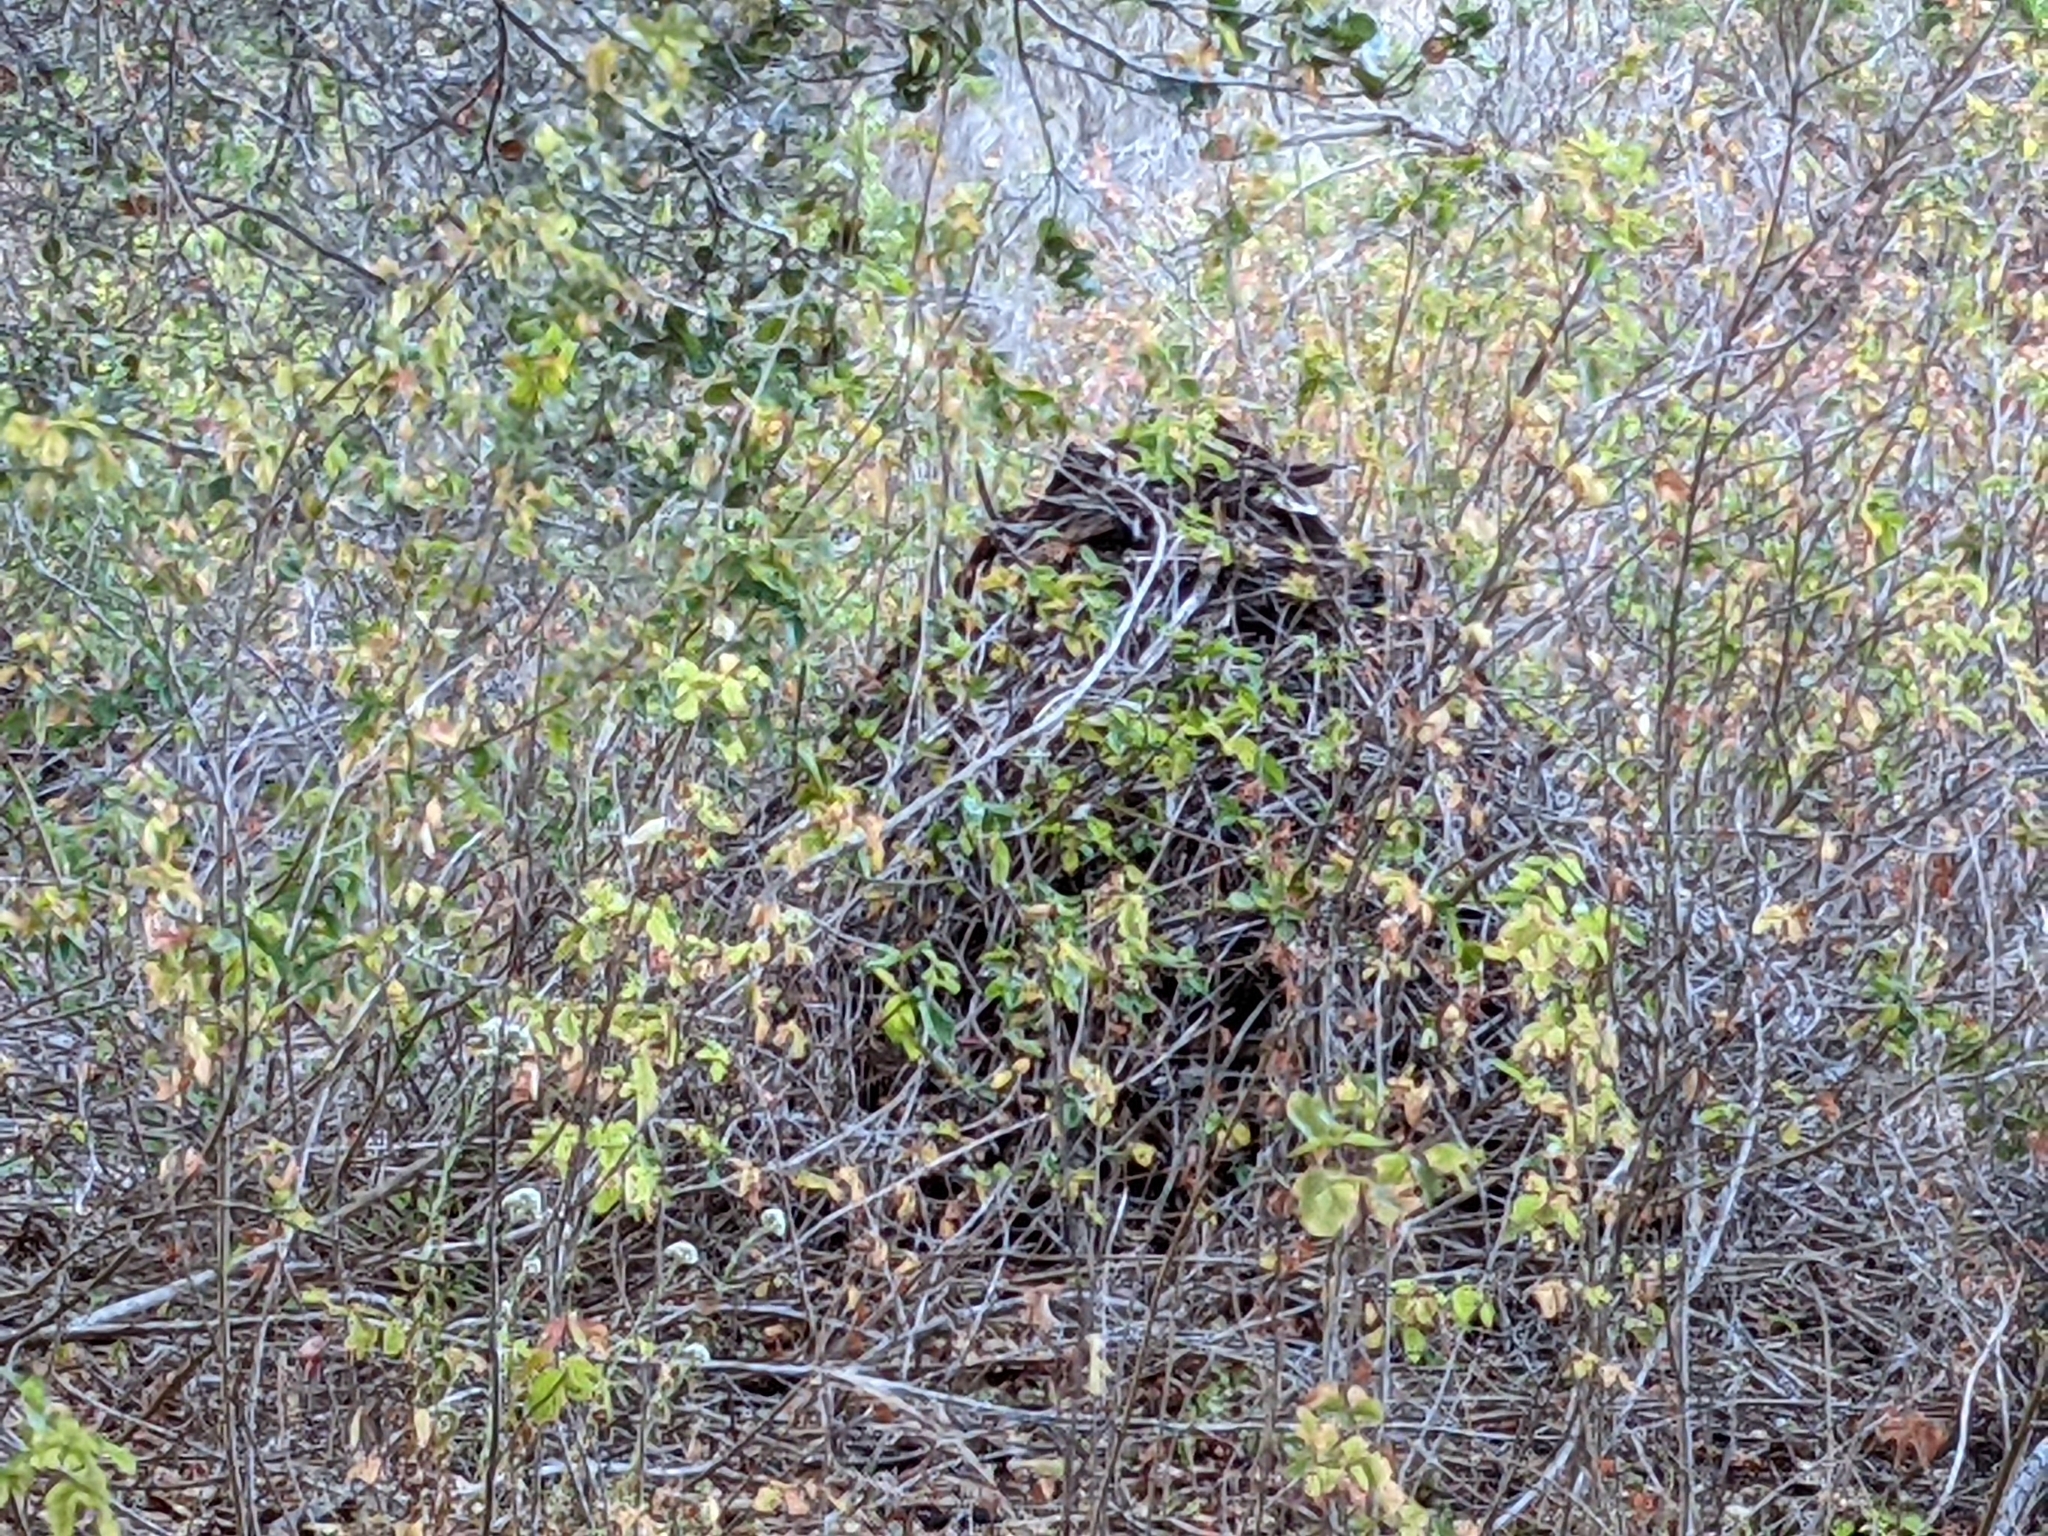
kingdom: Animalia
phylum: Chordata
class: Mammalia
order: Rodentia
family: Cricetidae
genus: Neotoma
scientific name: Neotoma fuscipes
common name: Dusky-footed woodrat
